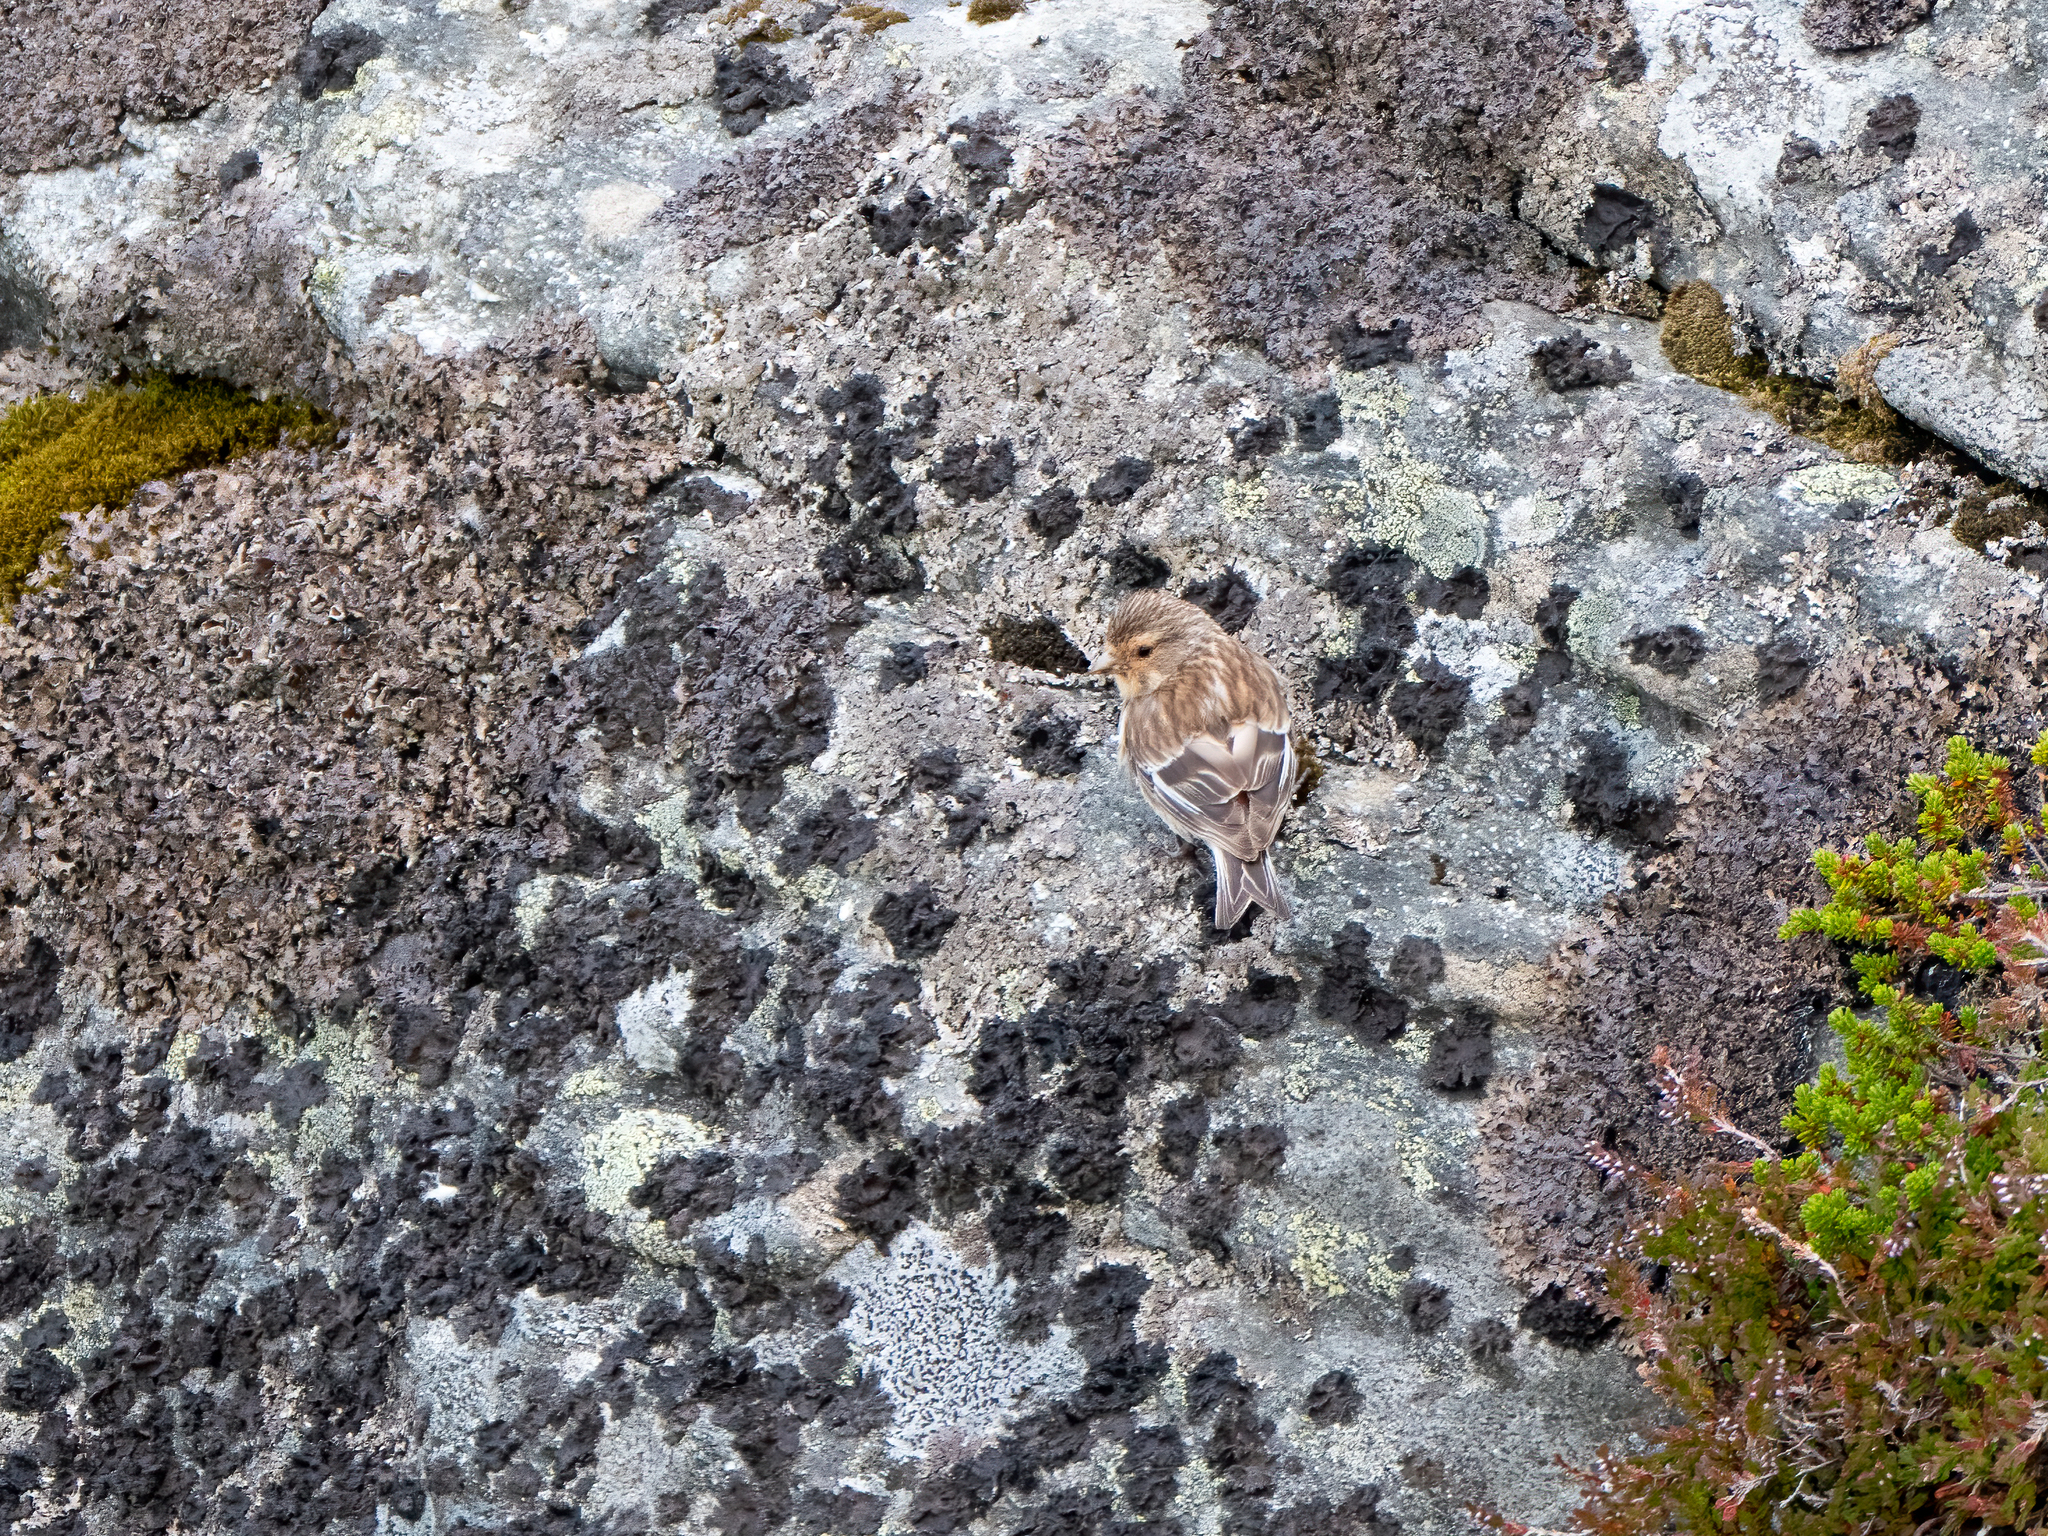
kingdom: Animalia
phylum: Chordata
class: Aves
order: Passeriformes
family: Fringillidae
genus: Linaria
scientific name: Linaria flavirostris
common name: Twite
